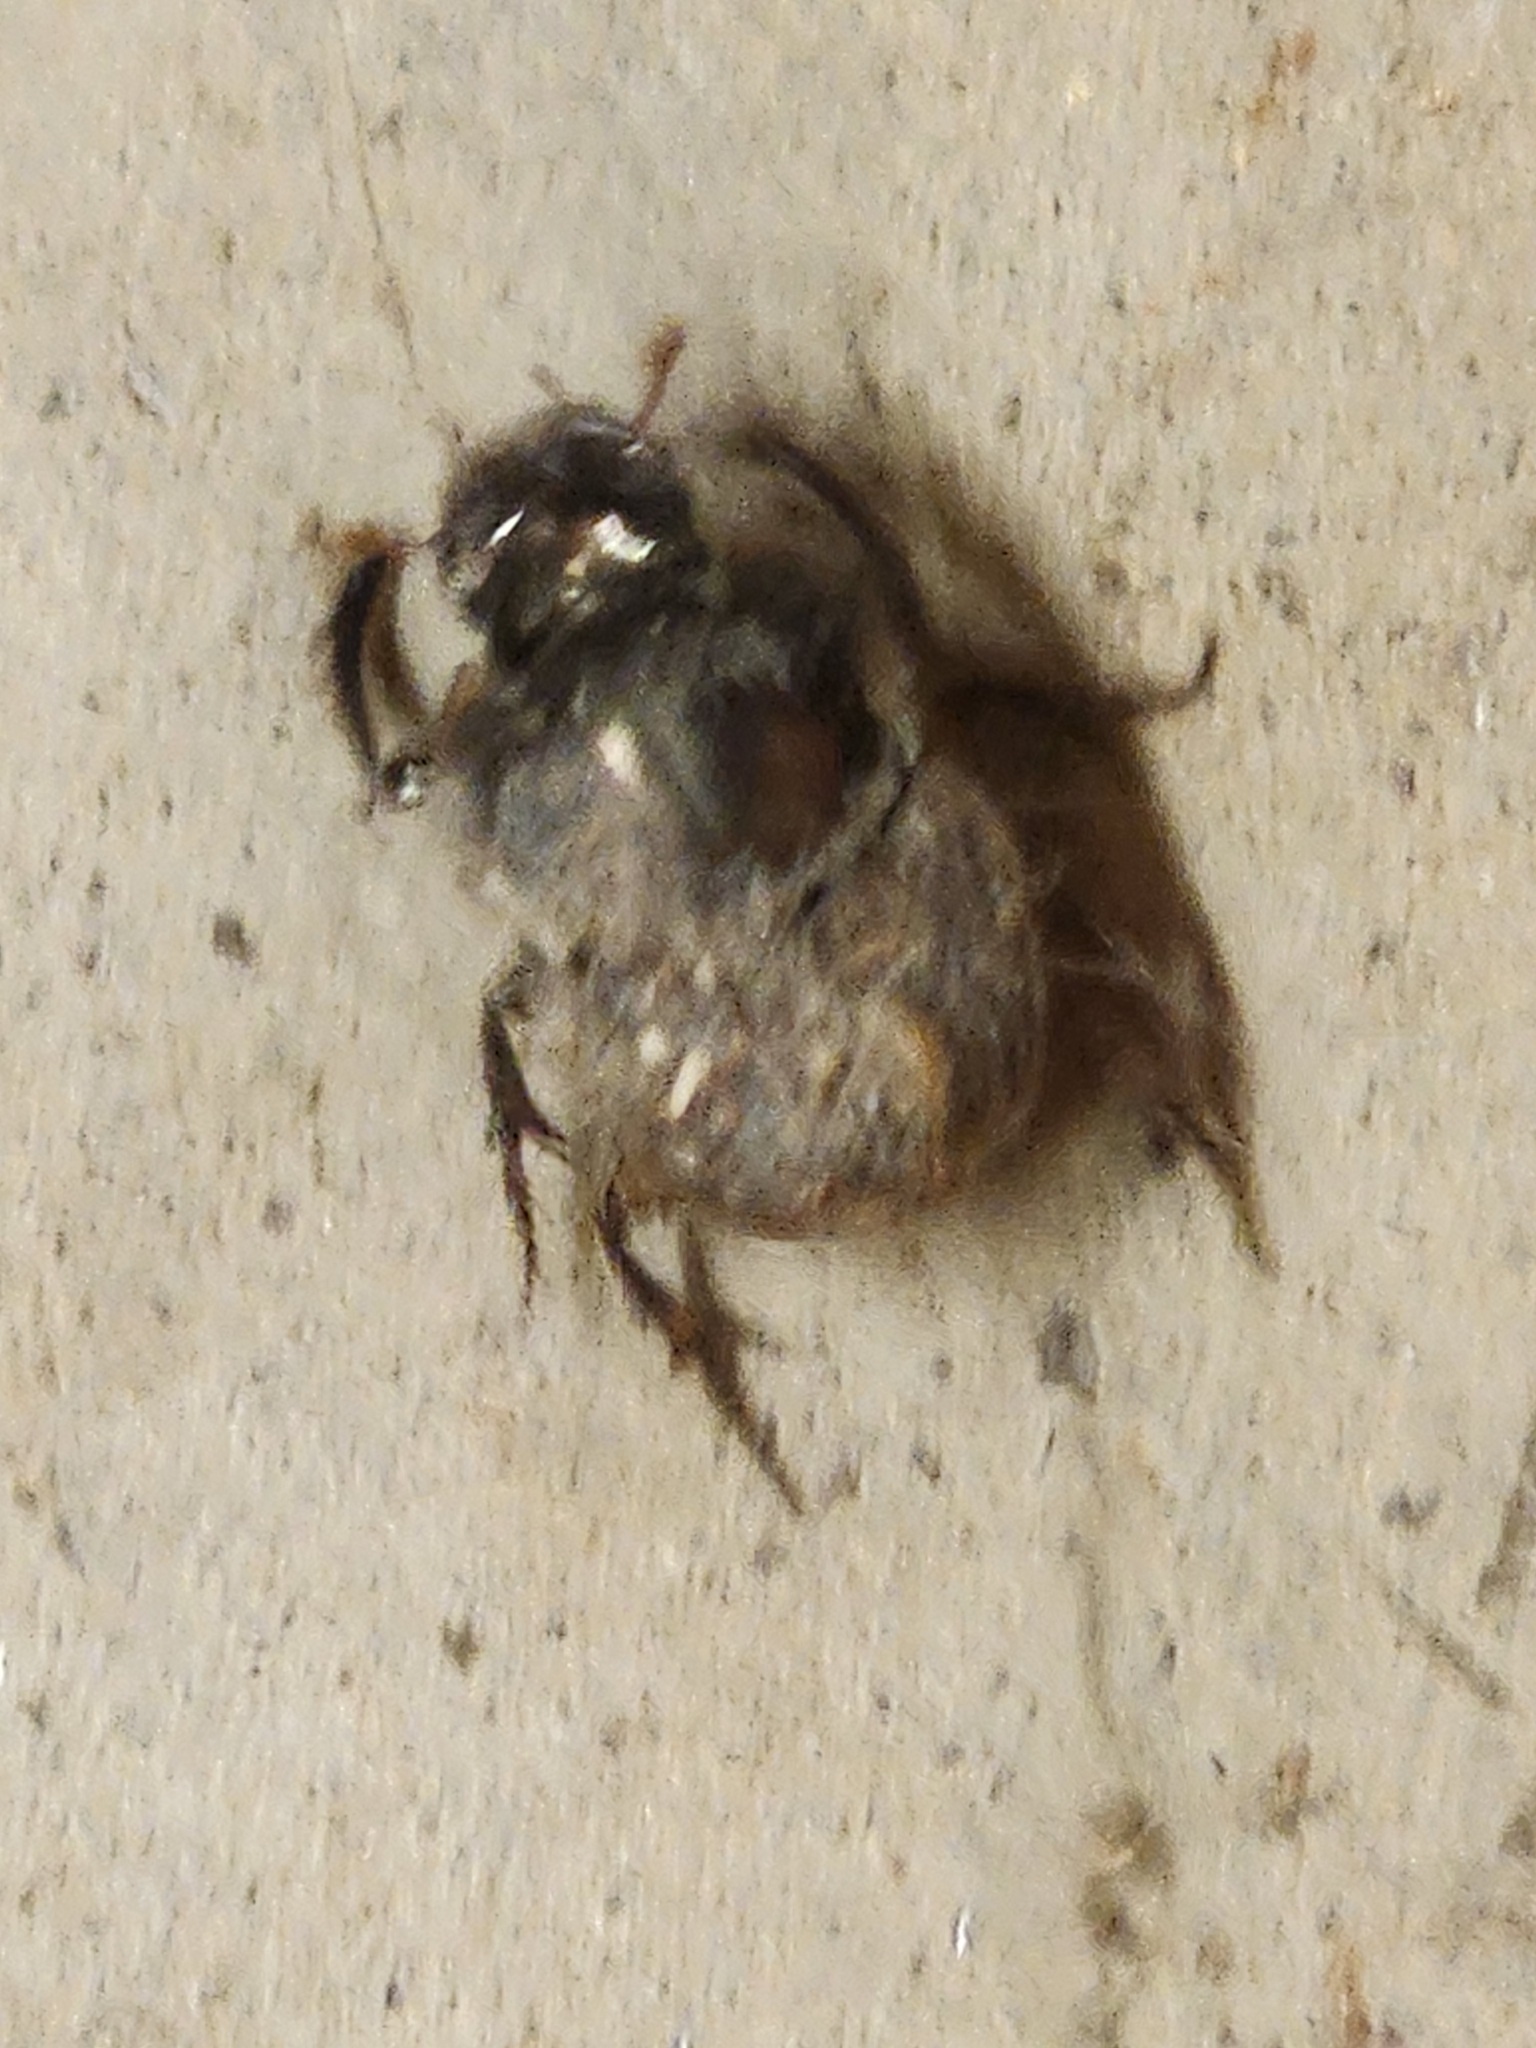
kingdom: Animalia
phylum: Arthropoda
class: Insecta
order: Coleoptera
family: Scarabaeidae
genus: Digitonthophagus
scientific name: Digitonthophagus gazella
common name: Brown dung beetle
